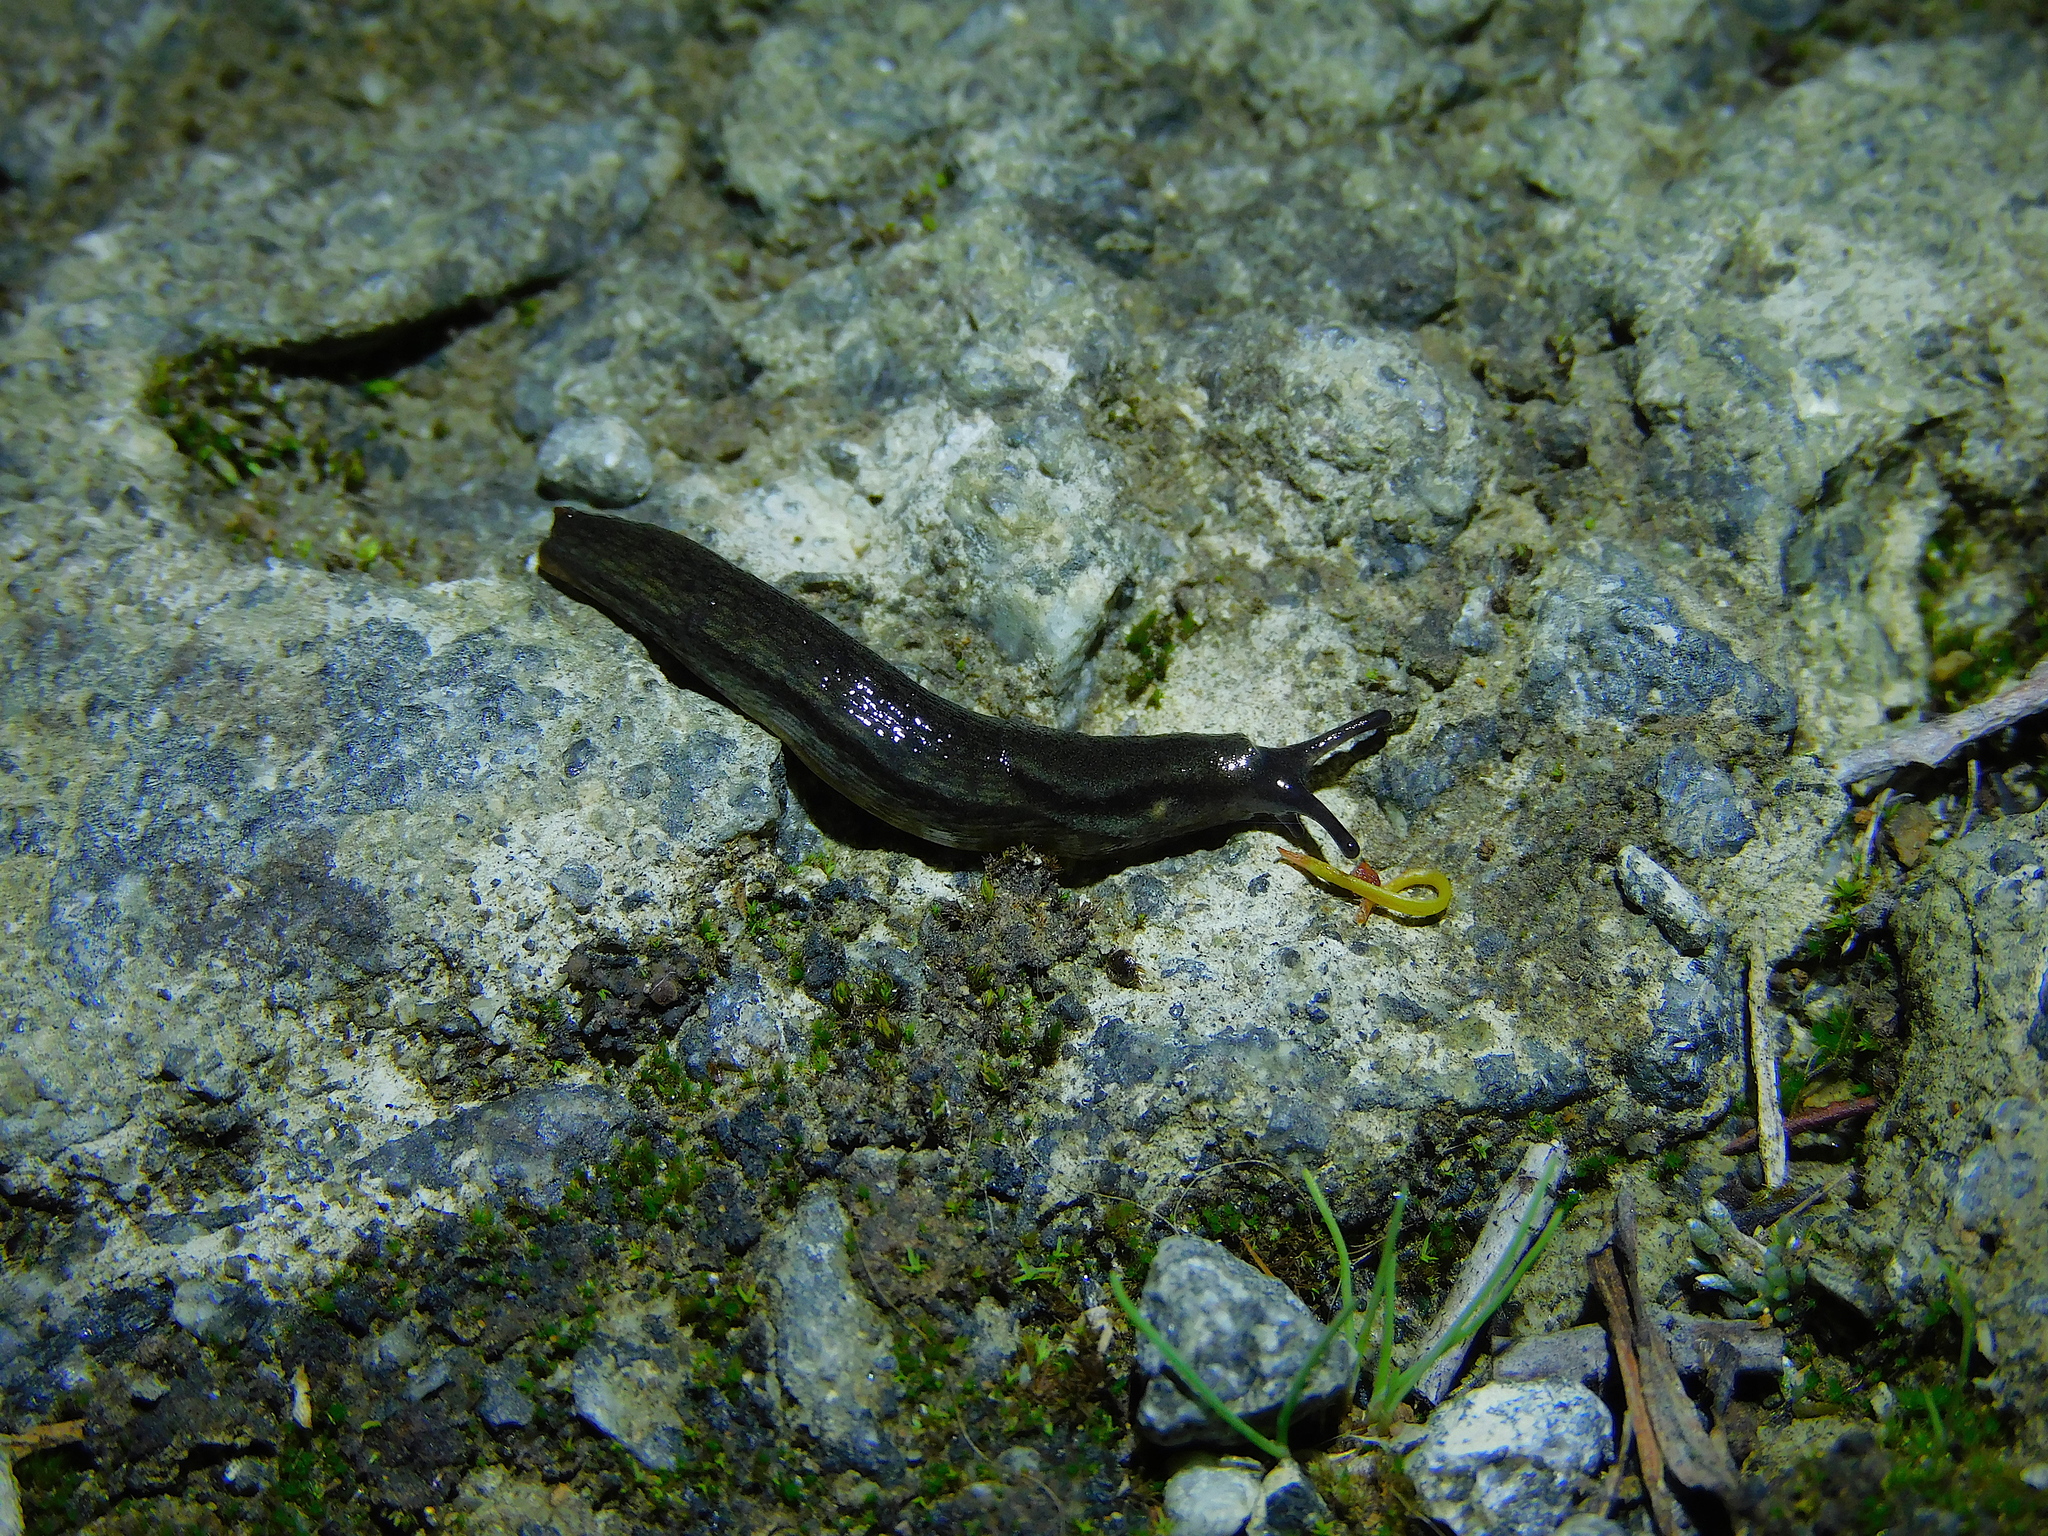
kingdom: Animalia
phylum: Mollusca
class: Gastropoda
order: Stylommatophora
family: Arionidae
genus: Arion
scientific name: Arion hortensis
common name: Garden arion
